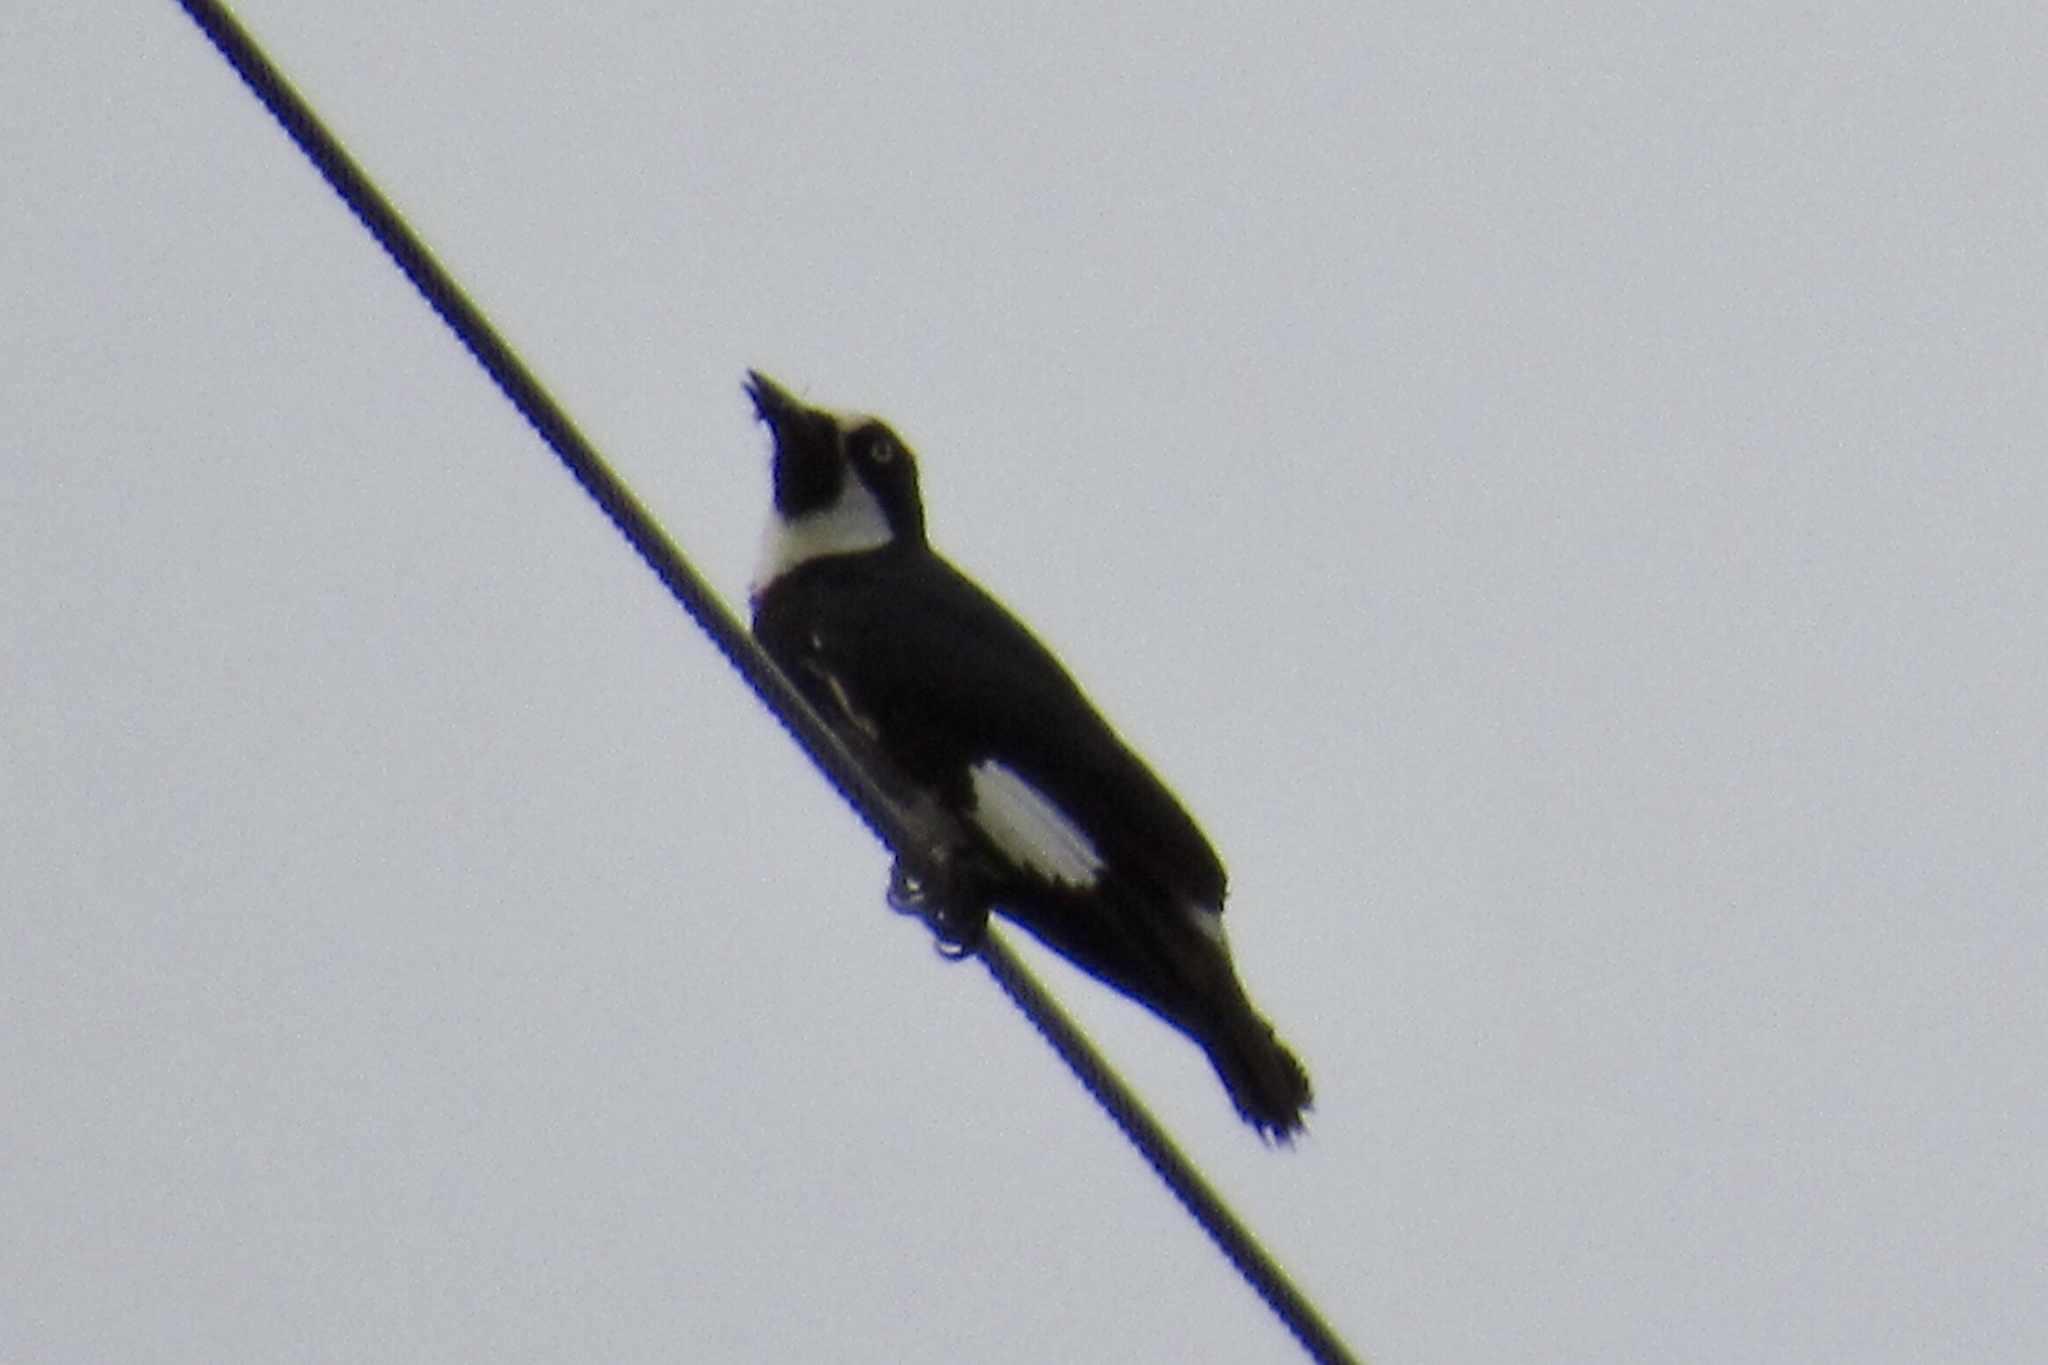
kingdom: Animalia
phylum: Chordata
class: Aves
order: Piciformes
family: Picidae
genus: Melanerpes
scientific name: Melanerpes formicivorus
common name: Acorn woodpecker
